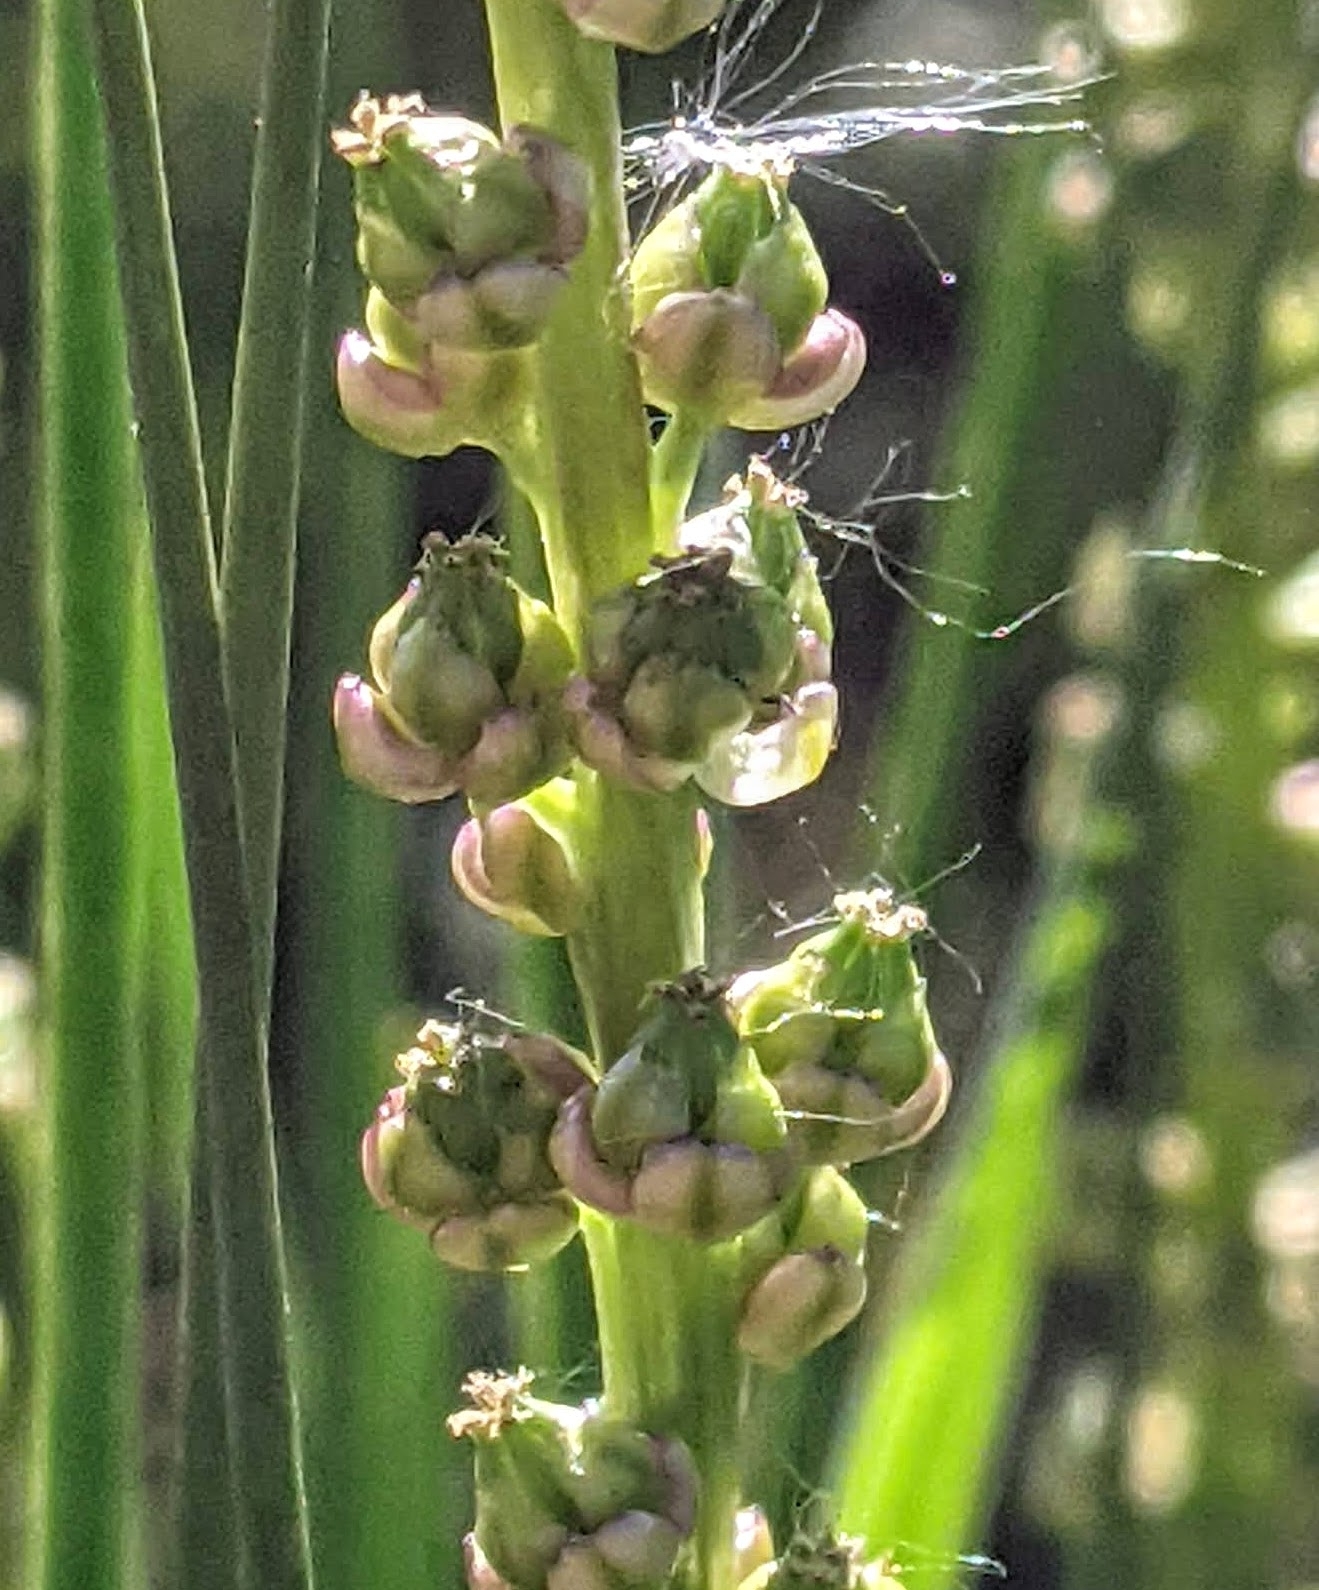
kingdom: Plantae
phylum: Tracheophyta
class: Liliopsida
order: Alismatales
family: Juncaginaceae
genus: Triglochin
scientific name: Triglochin maritima
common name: Sea arrowgrass
